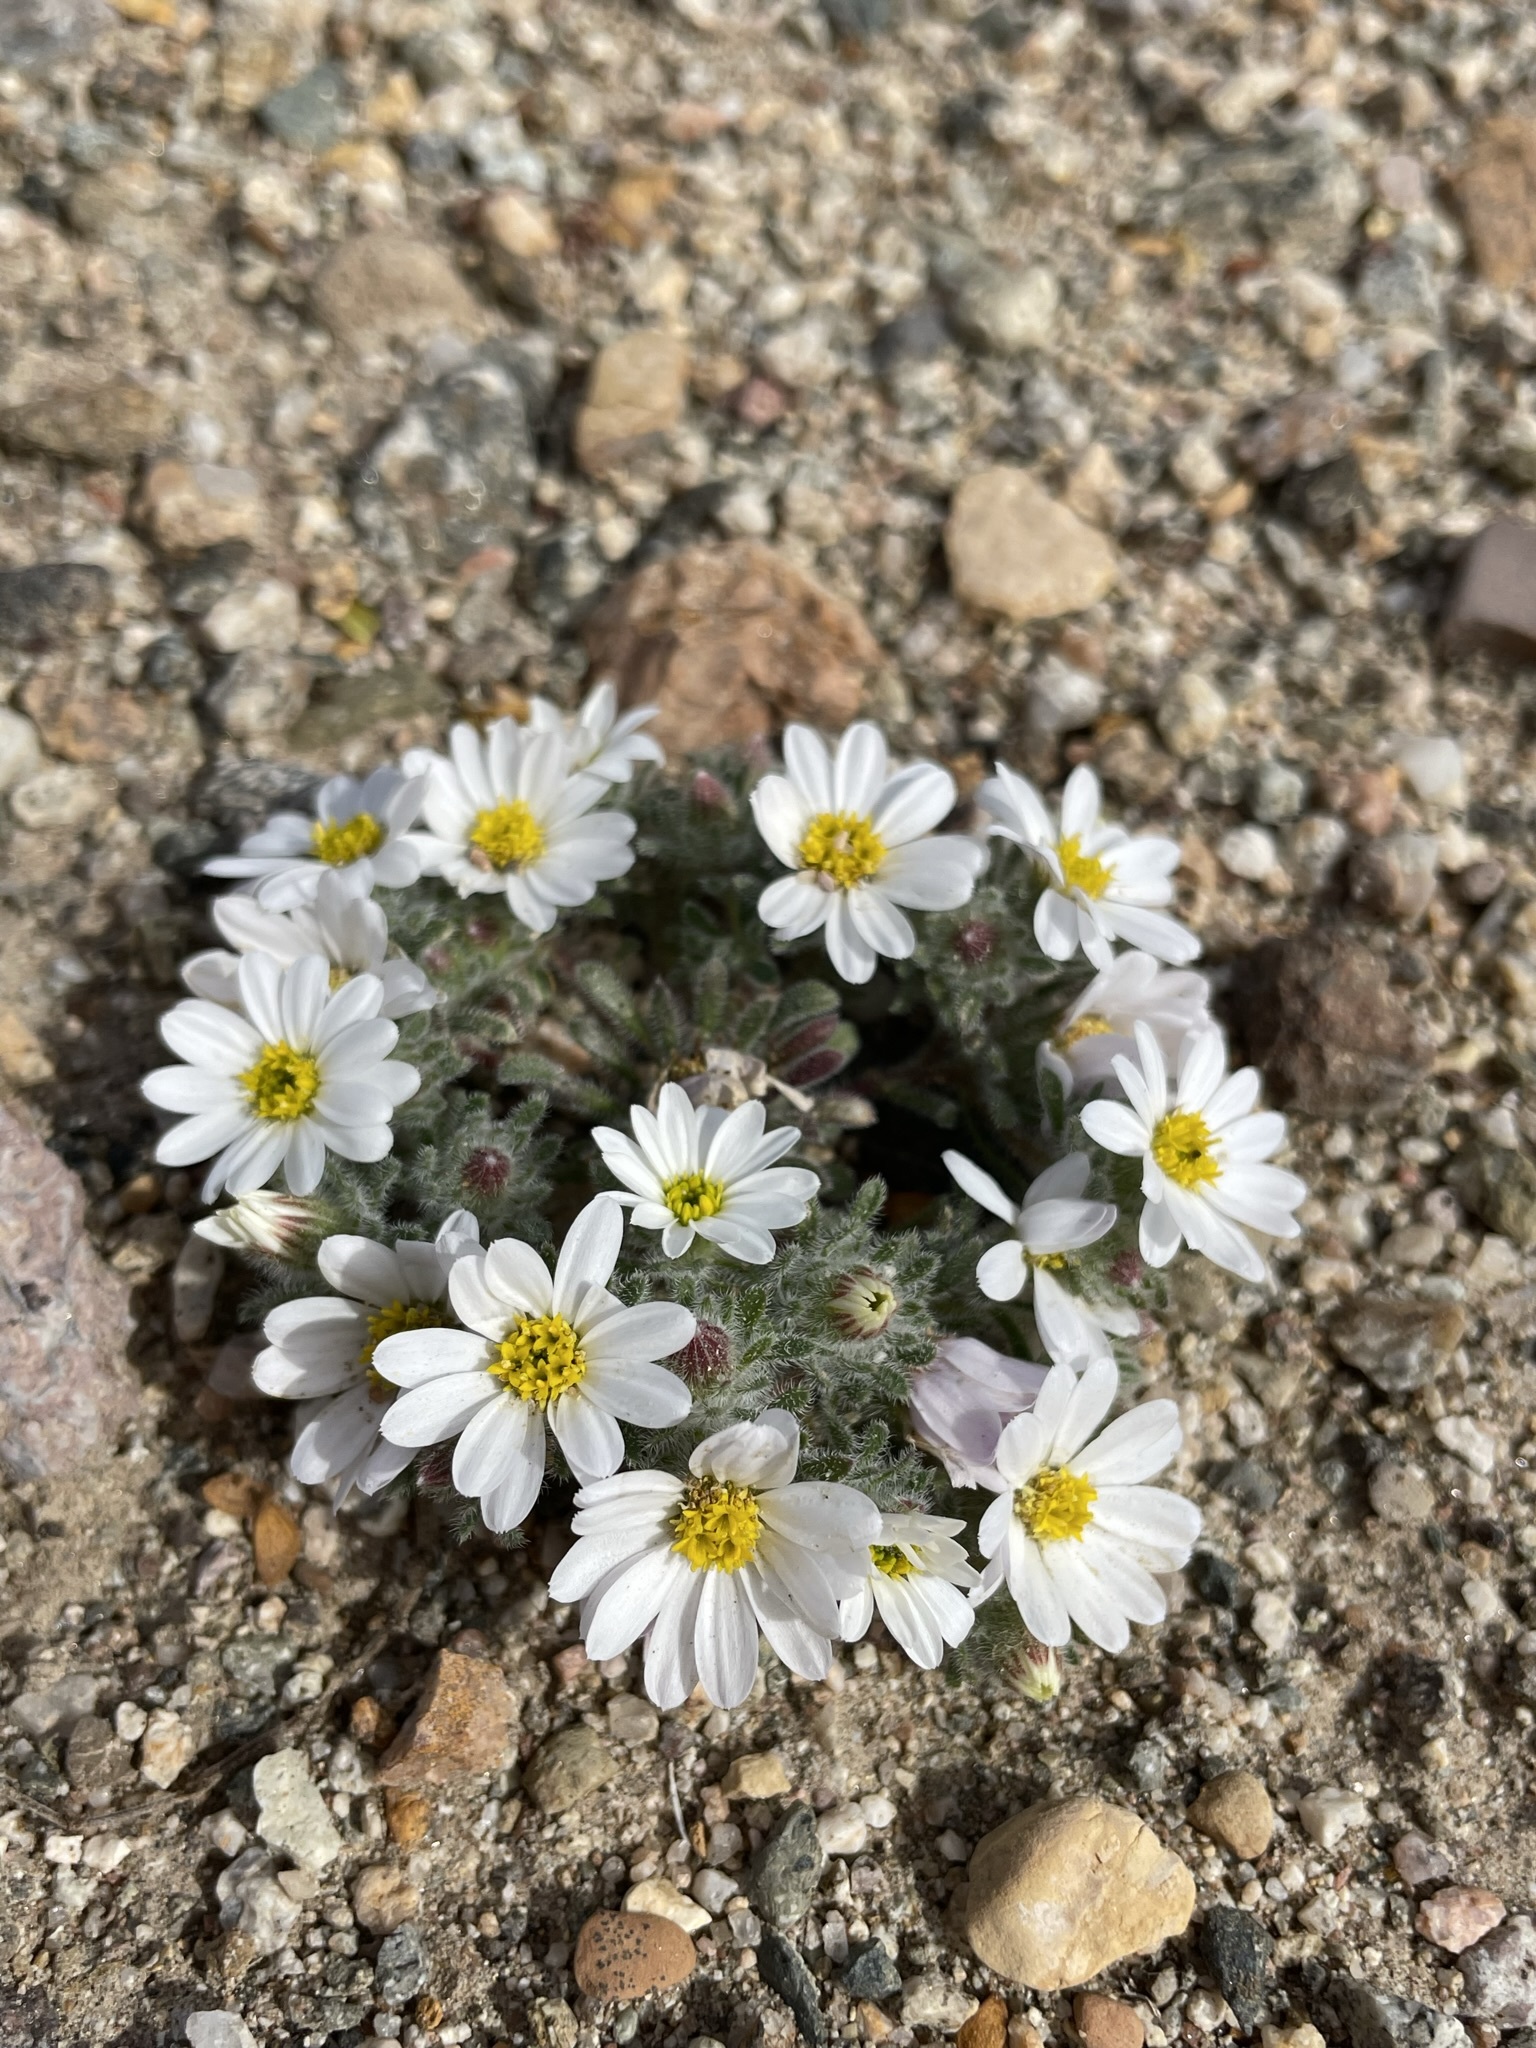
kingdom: Plantae
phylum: Tracheophyta
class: Magnoliopsida
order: Asterales
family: Asteraceae
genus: Monoptilon
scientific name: Monoptilon bellioides
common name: Bristly desertstar
